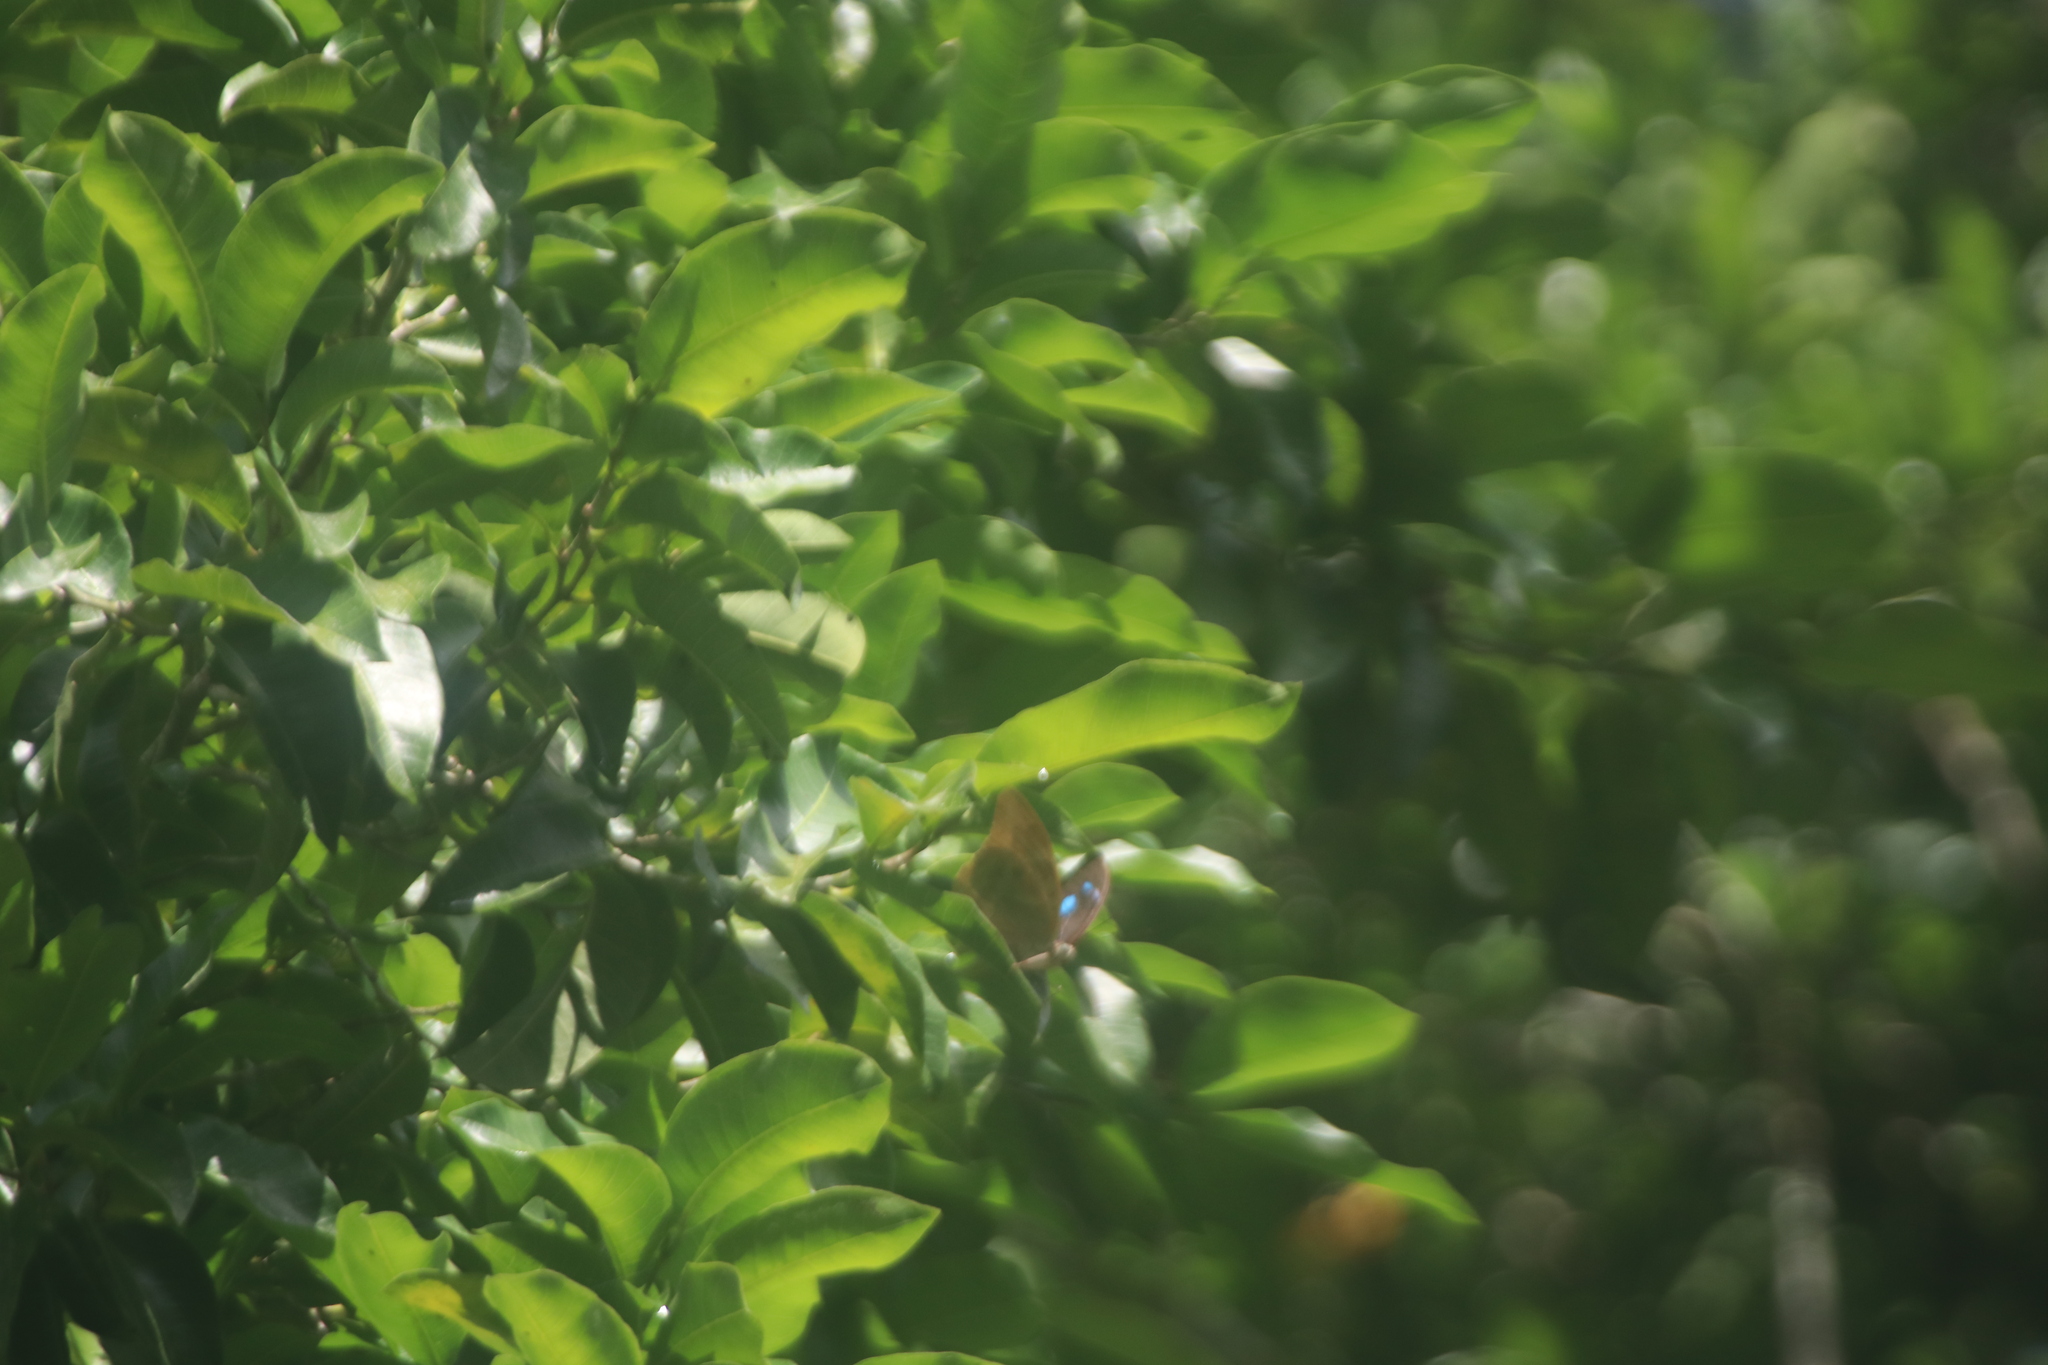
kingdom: Animalia
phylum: Arthropoda
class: Insecta
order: Lepidoptera
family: Nymphalidae
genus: Prepona
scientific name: Prepona Archaeoprepona demophon
